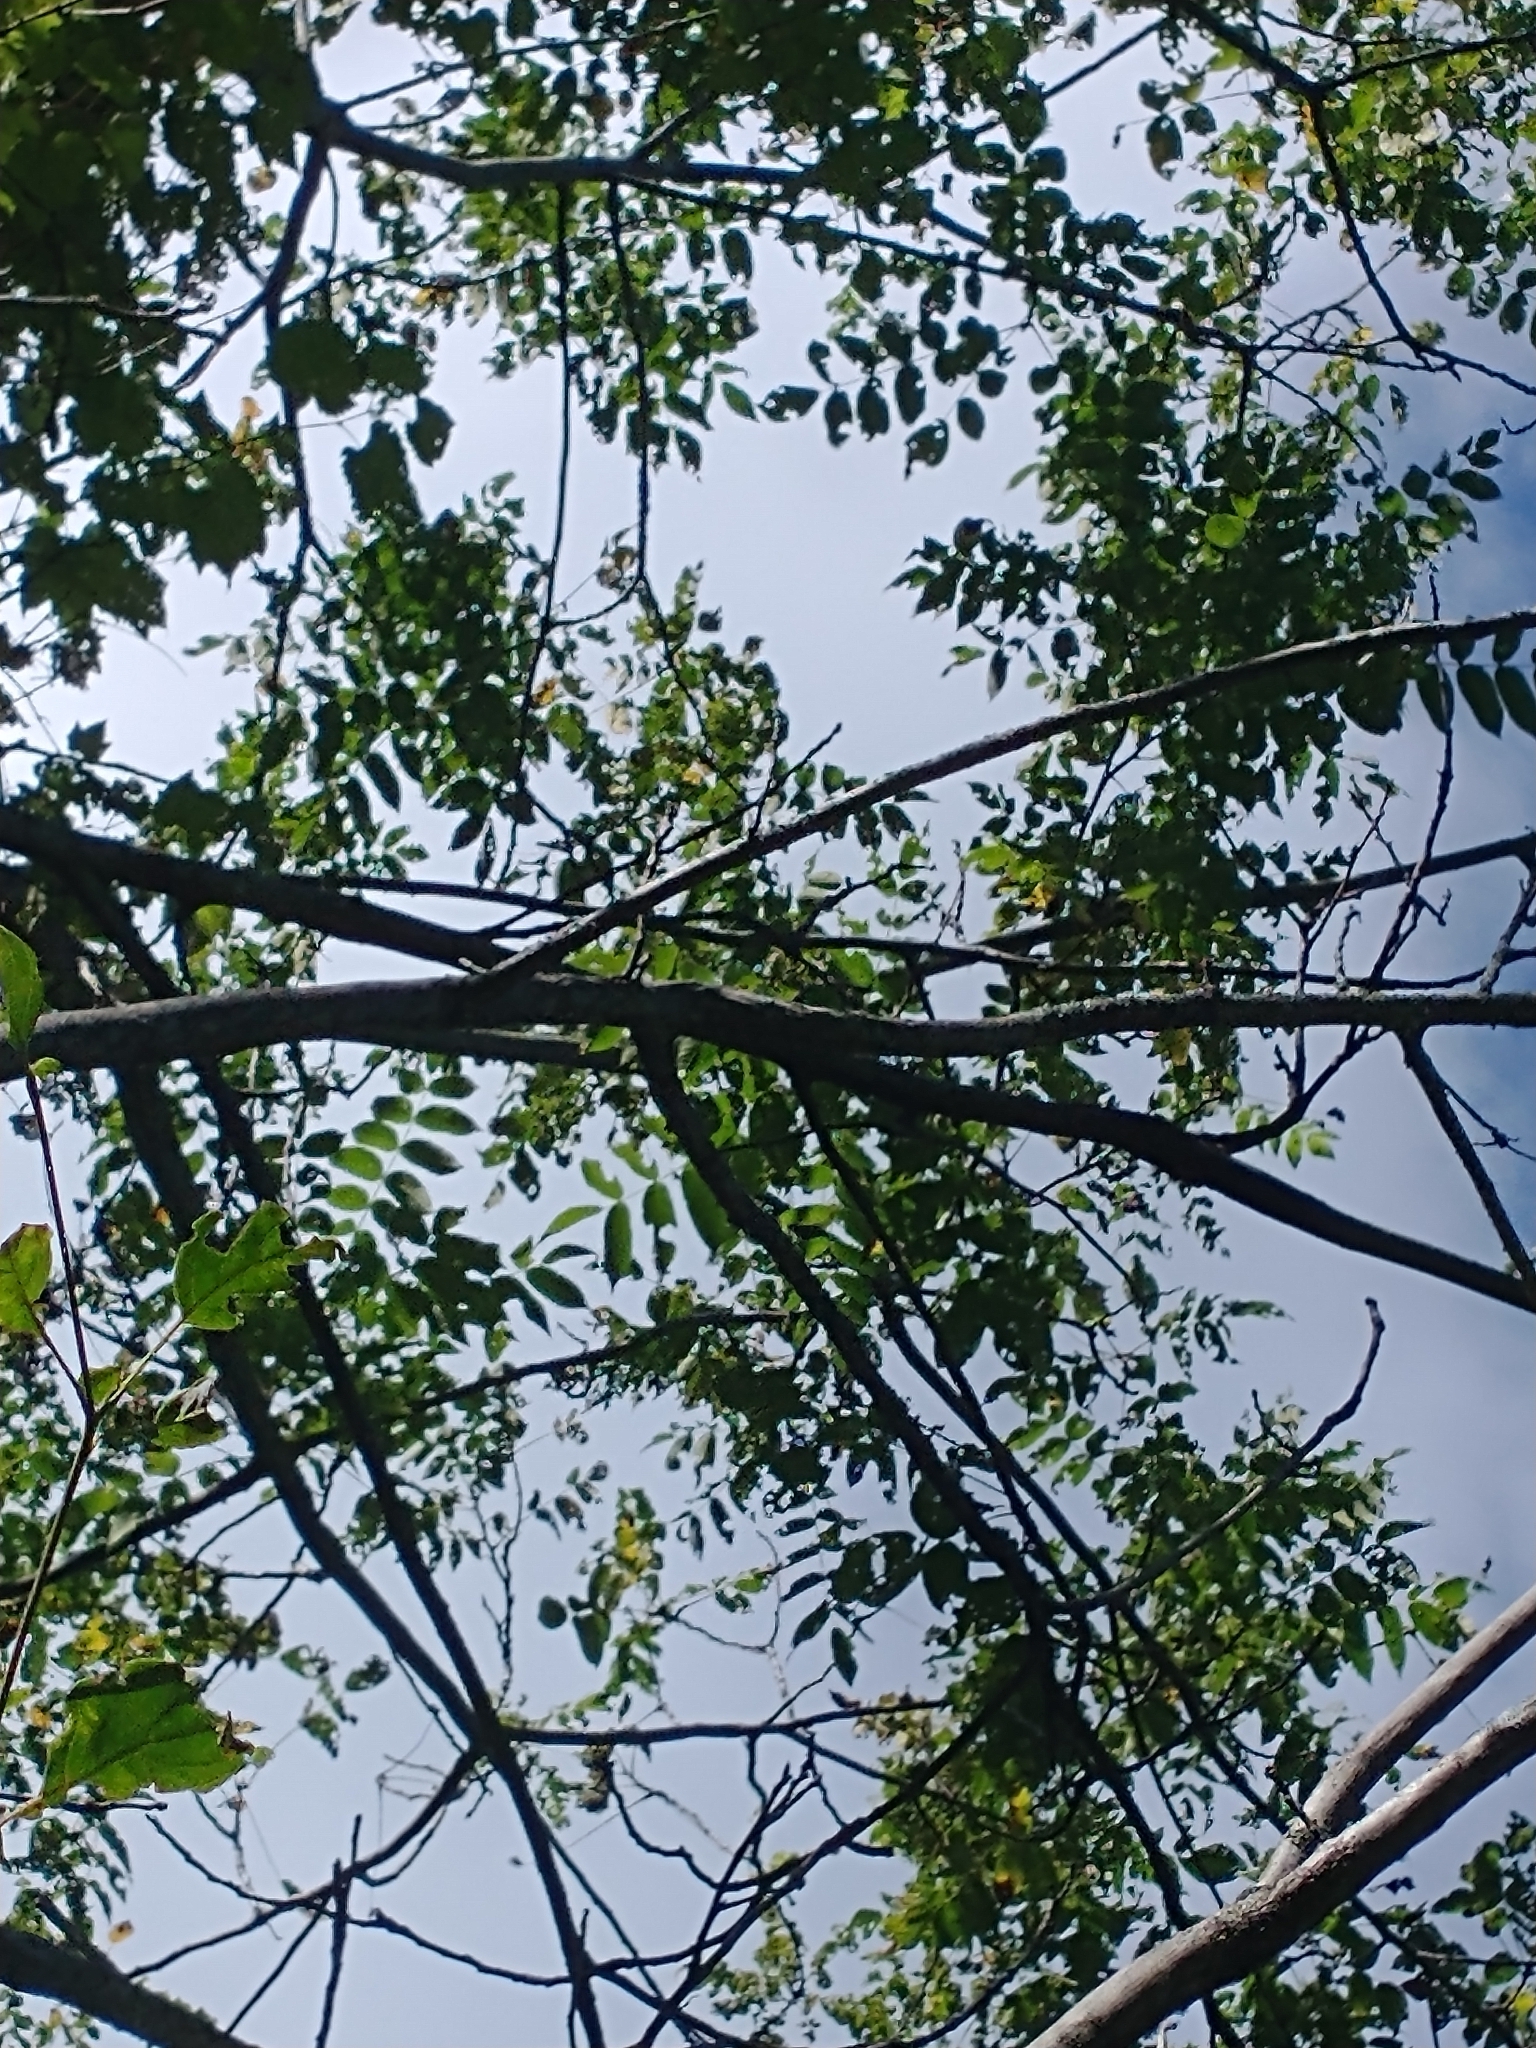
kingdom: Plantae
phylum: Tracheophyta
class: Magnoliopsida
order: Fagales
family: Juglandaceae
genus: Juglans
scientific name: Juglans cinerea
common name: Butternut
